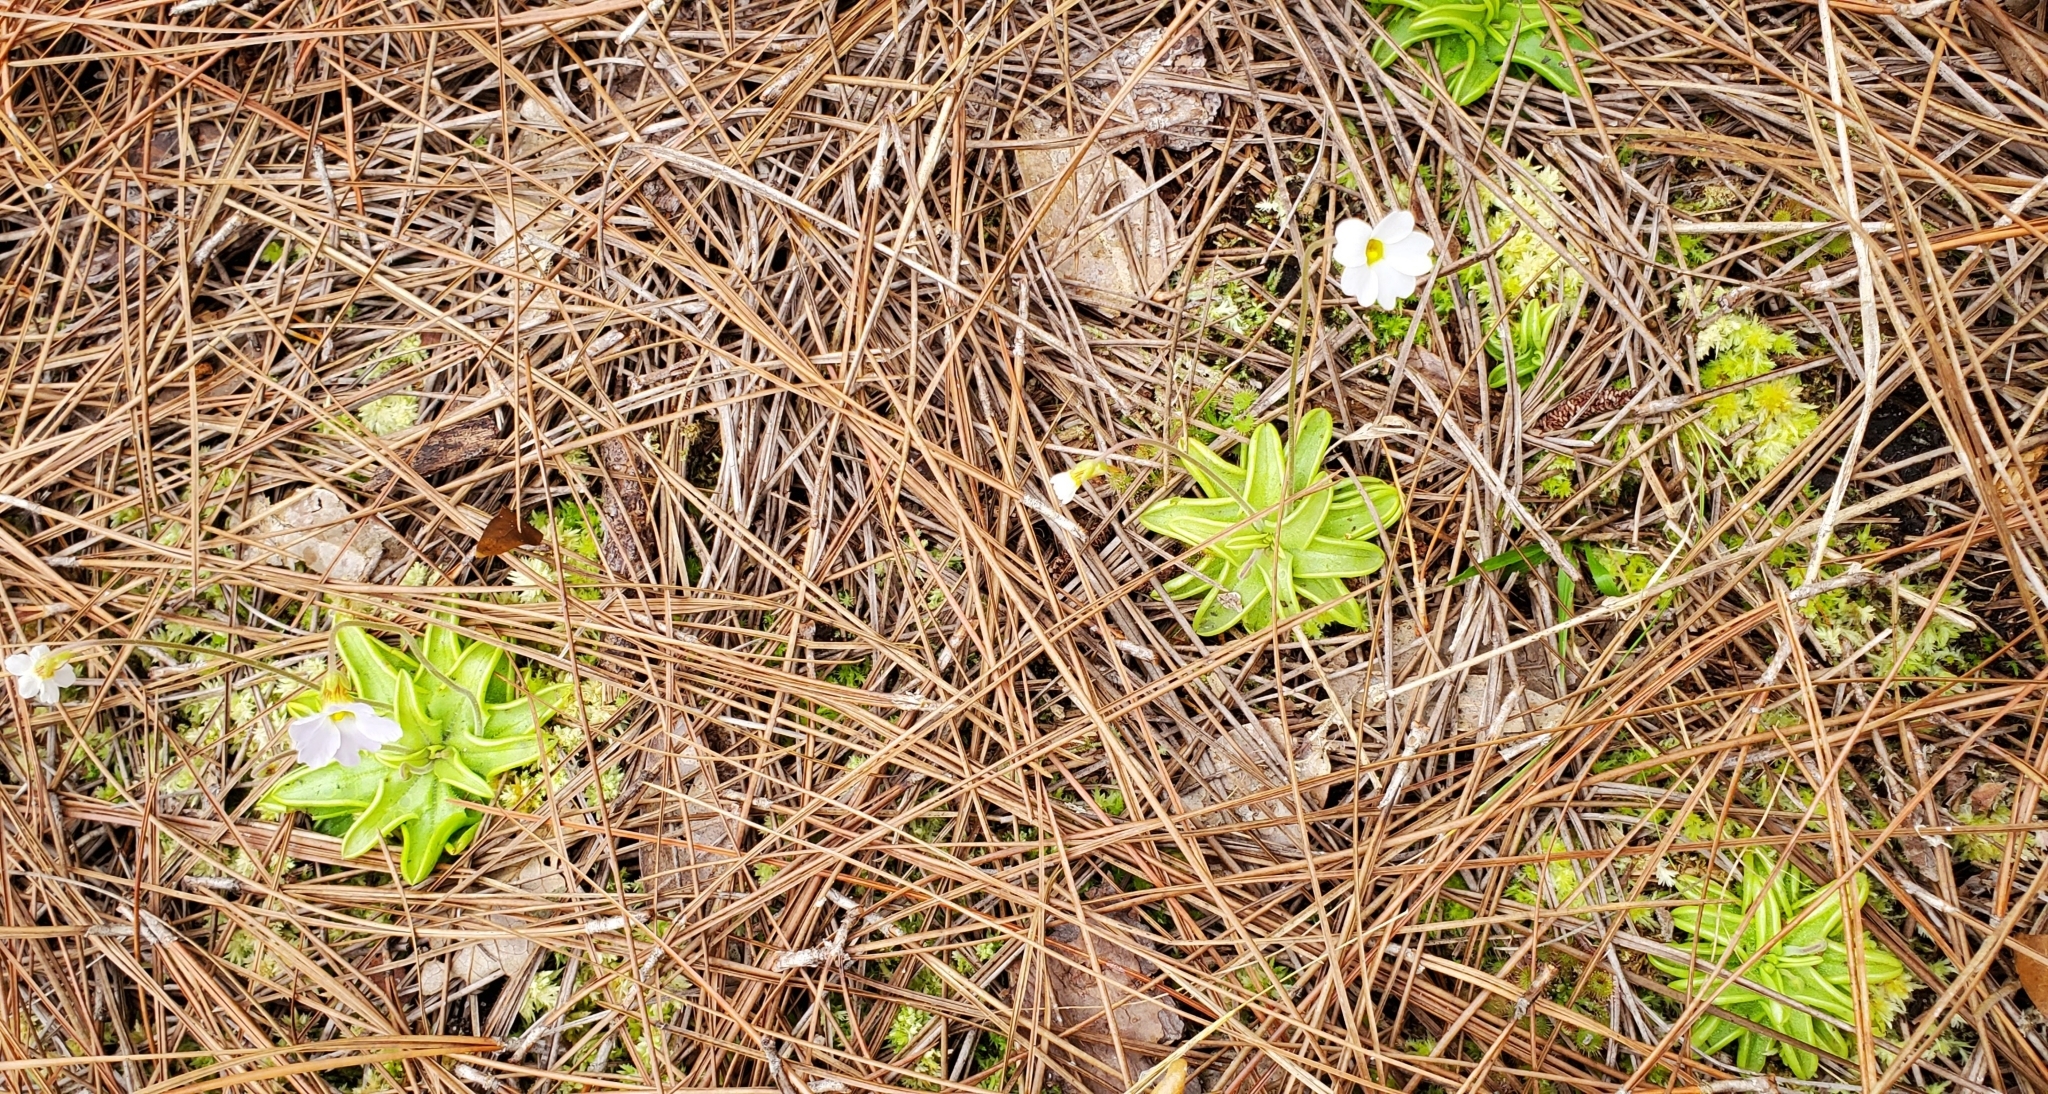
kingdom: Plantae
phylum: Tracheophyta
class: Magnoliopsida
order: Lamiales
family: Lentibulariaceae
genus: Pinguicula
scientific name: Pinguicula pumila
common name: Small butterwort
